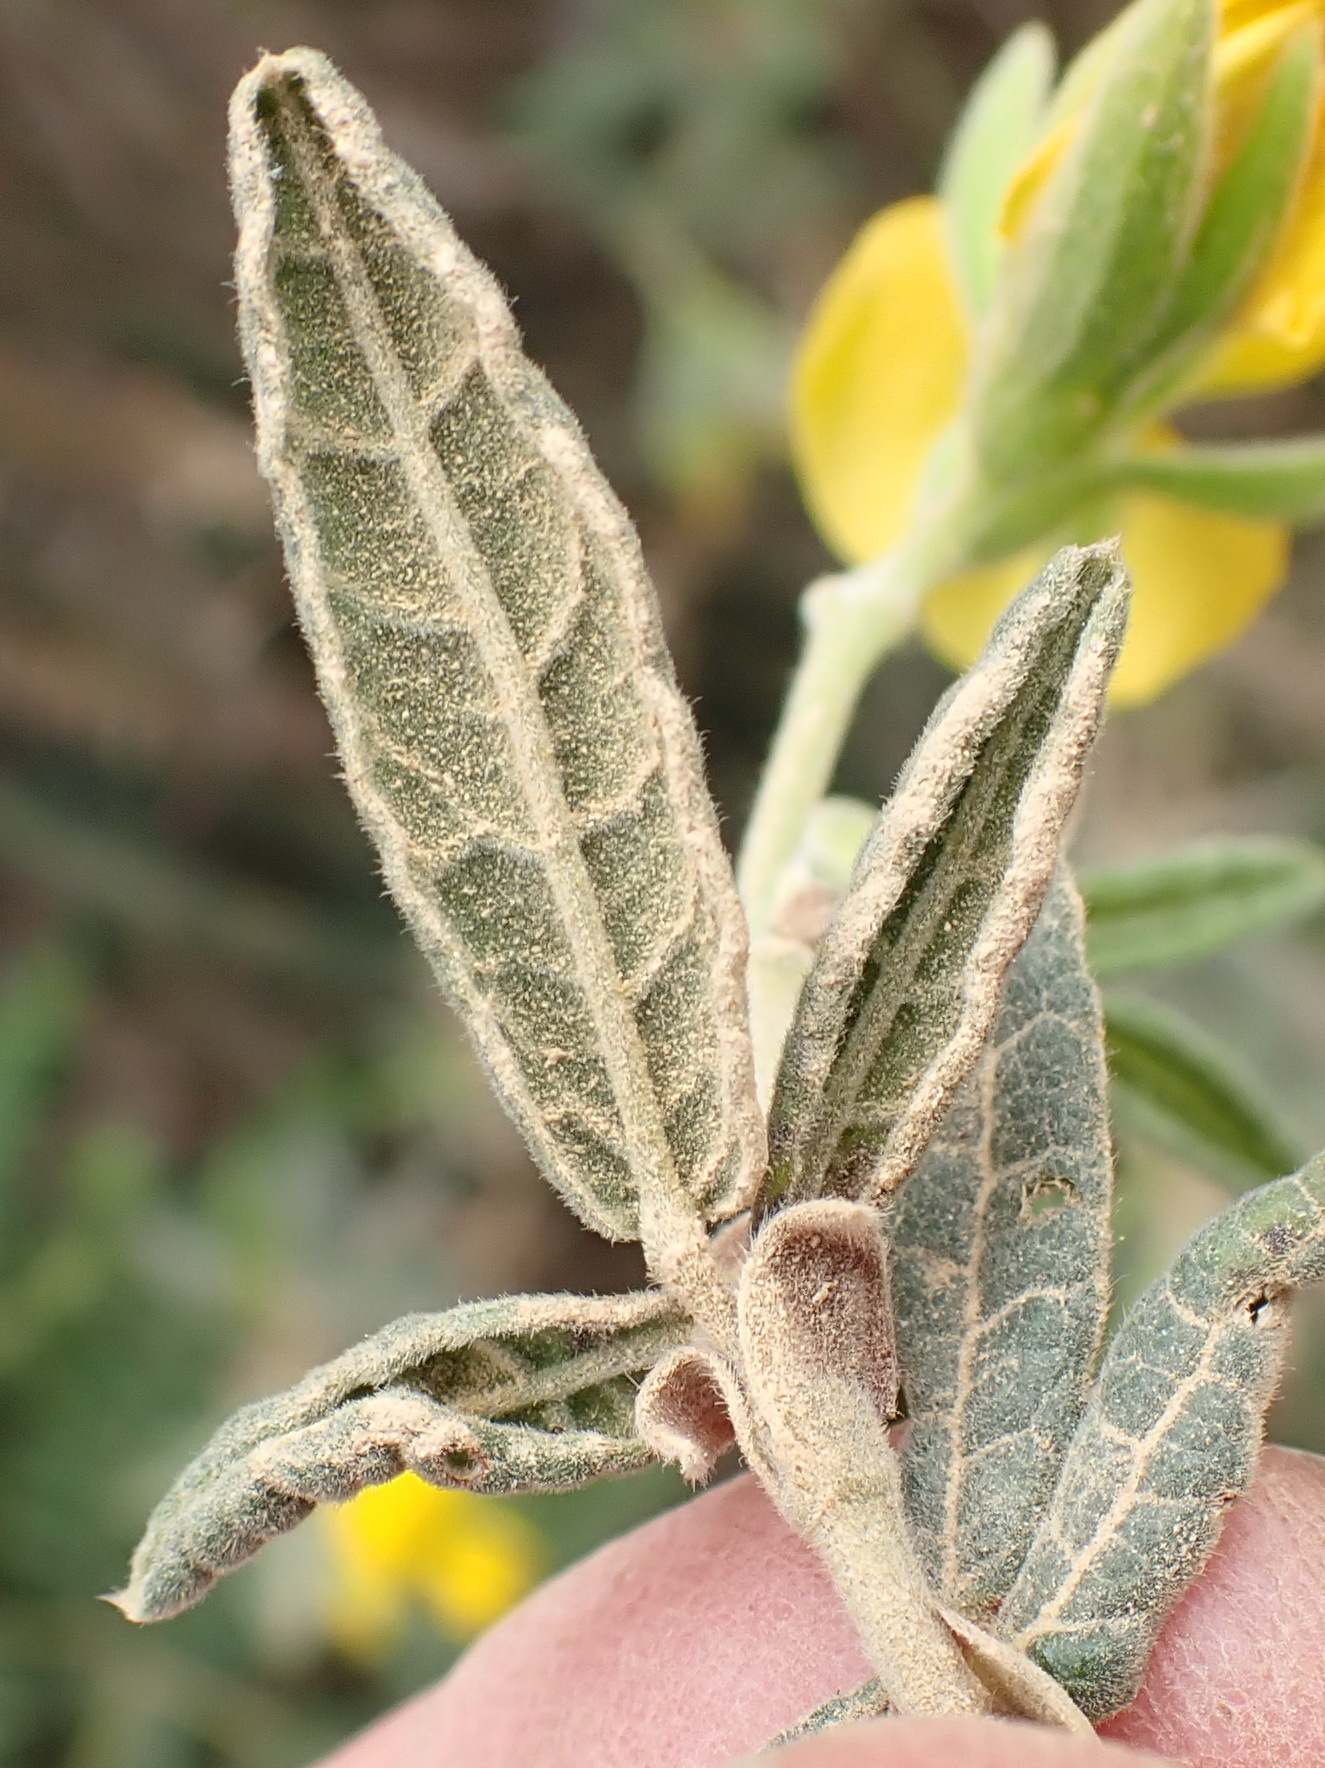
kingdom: Plantae
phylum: Tracheophyta
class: Magnoliopsida
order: Fabales
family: Fabaceae
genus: Rhynchosia
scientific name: Rhynchosia chrysoscias
